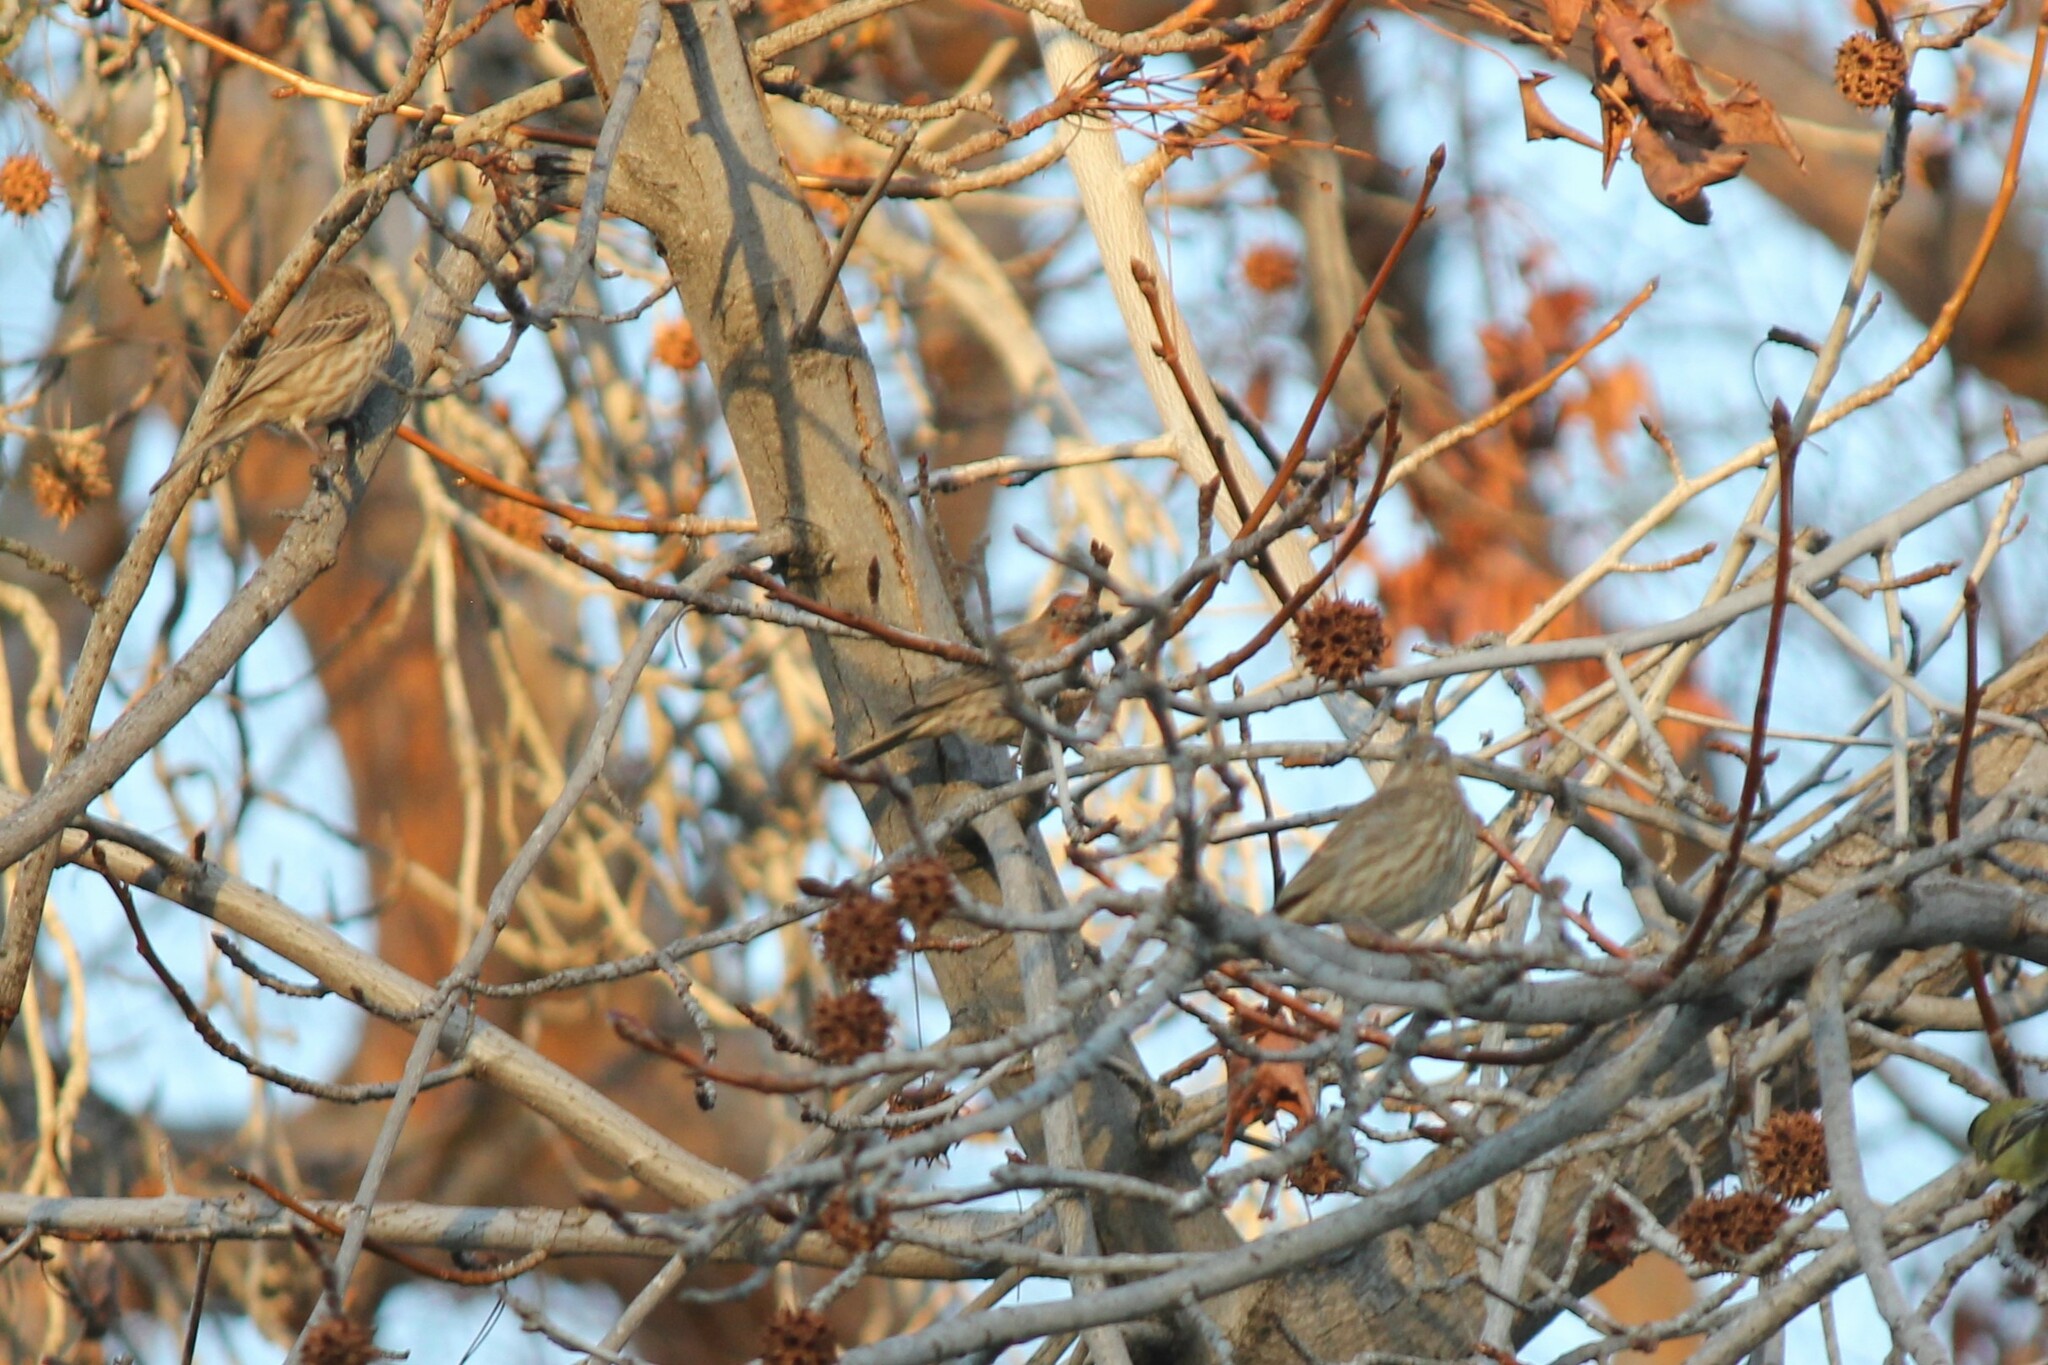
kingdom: Animalia
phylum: Chordata
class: Aves
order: Passeriformes
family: Fringillidae
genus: Haemorhous
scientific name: Haemorhous mexicanus
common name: House finch
